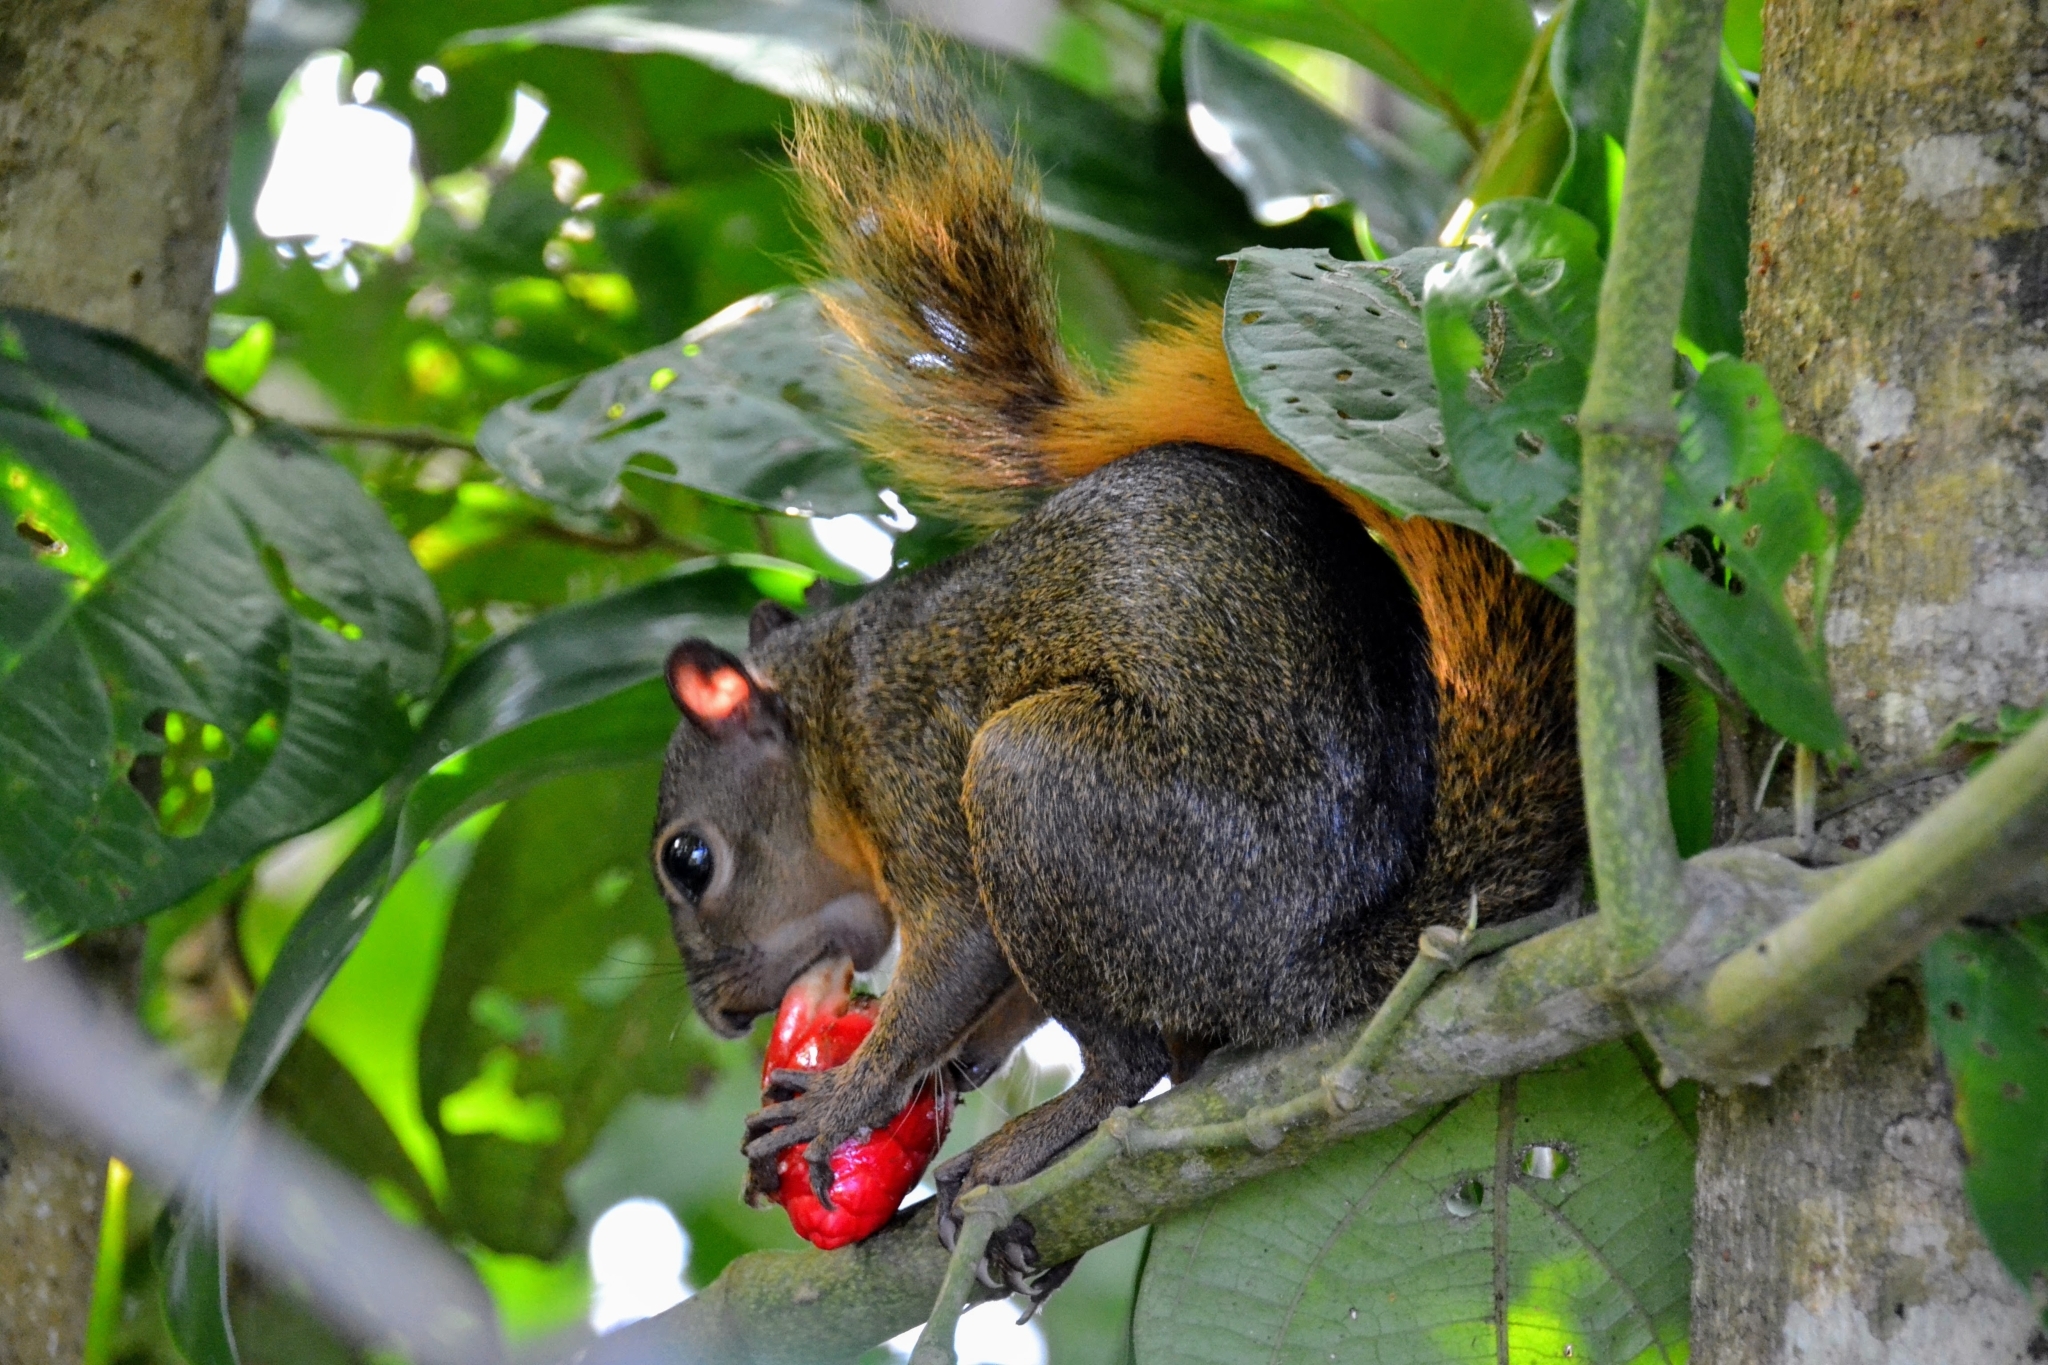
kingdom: Animalia
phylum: Chordata
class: Mammalia
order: Rodentia
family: Sciuridae
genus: Sciurus
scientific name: Sciurus granatensis
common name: Red-tailed squirrel
